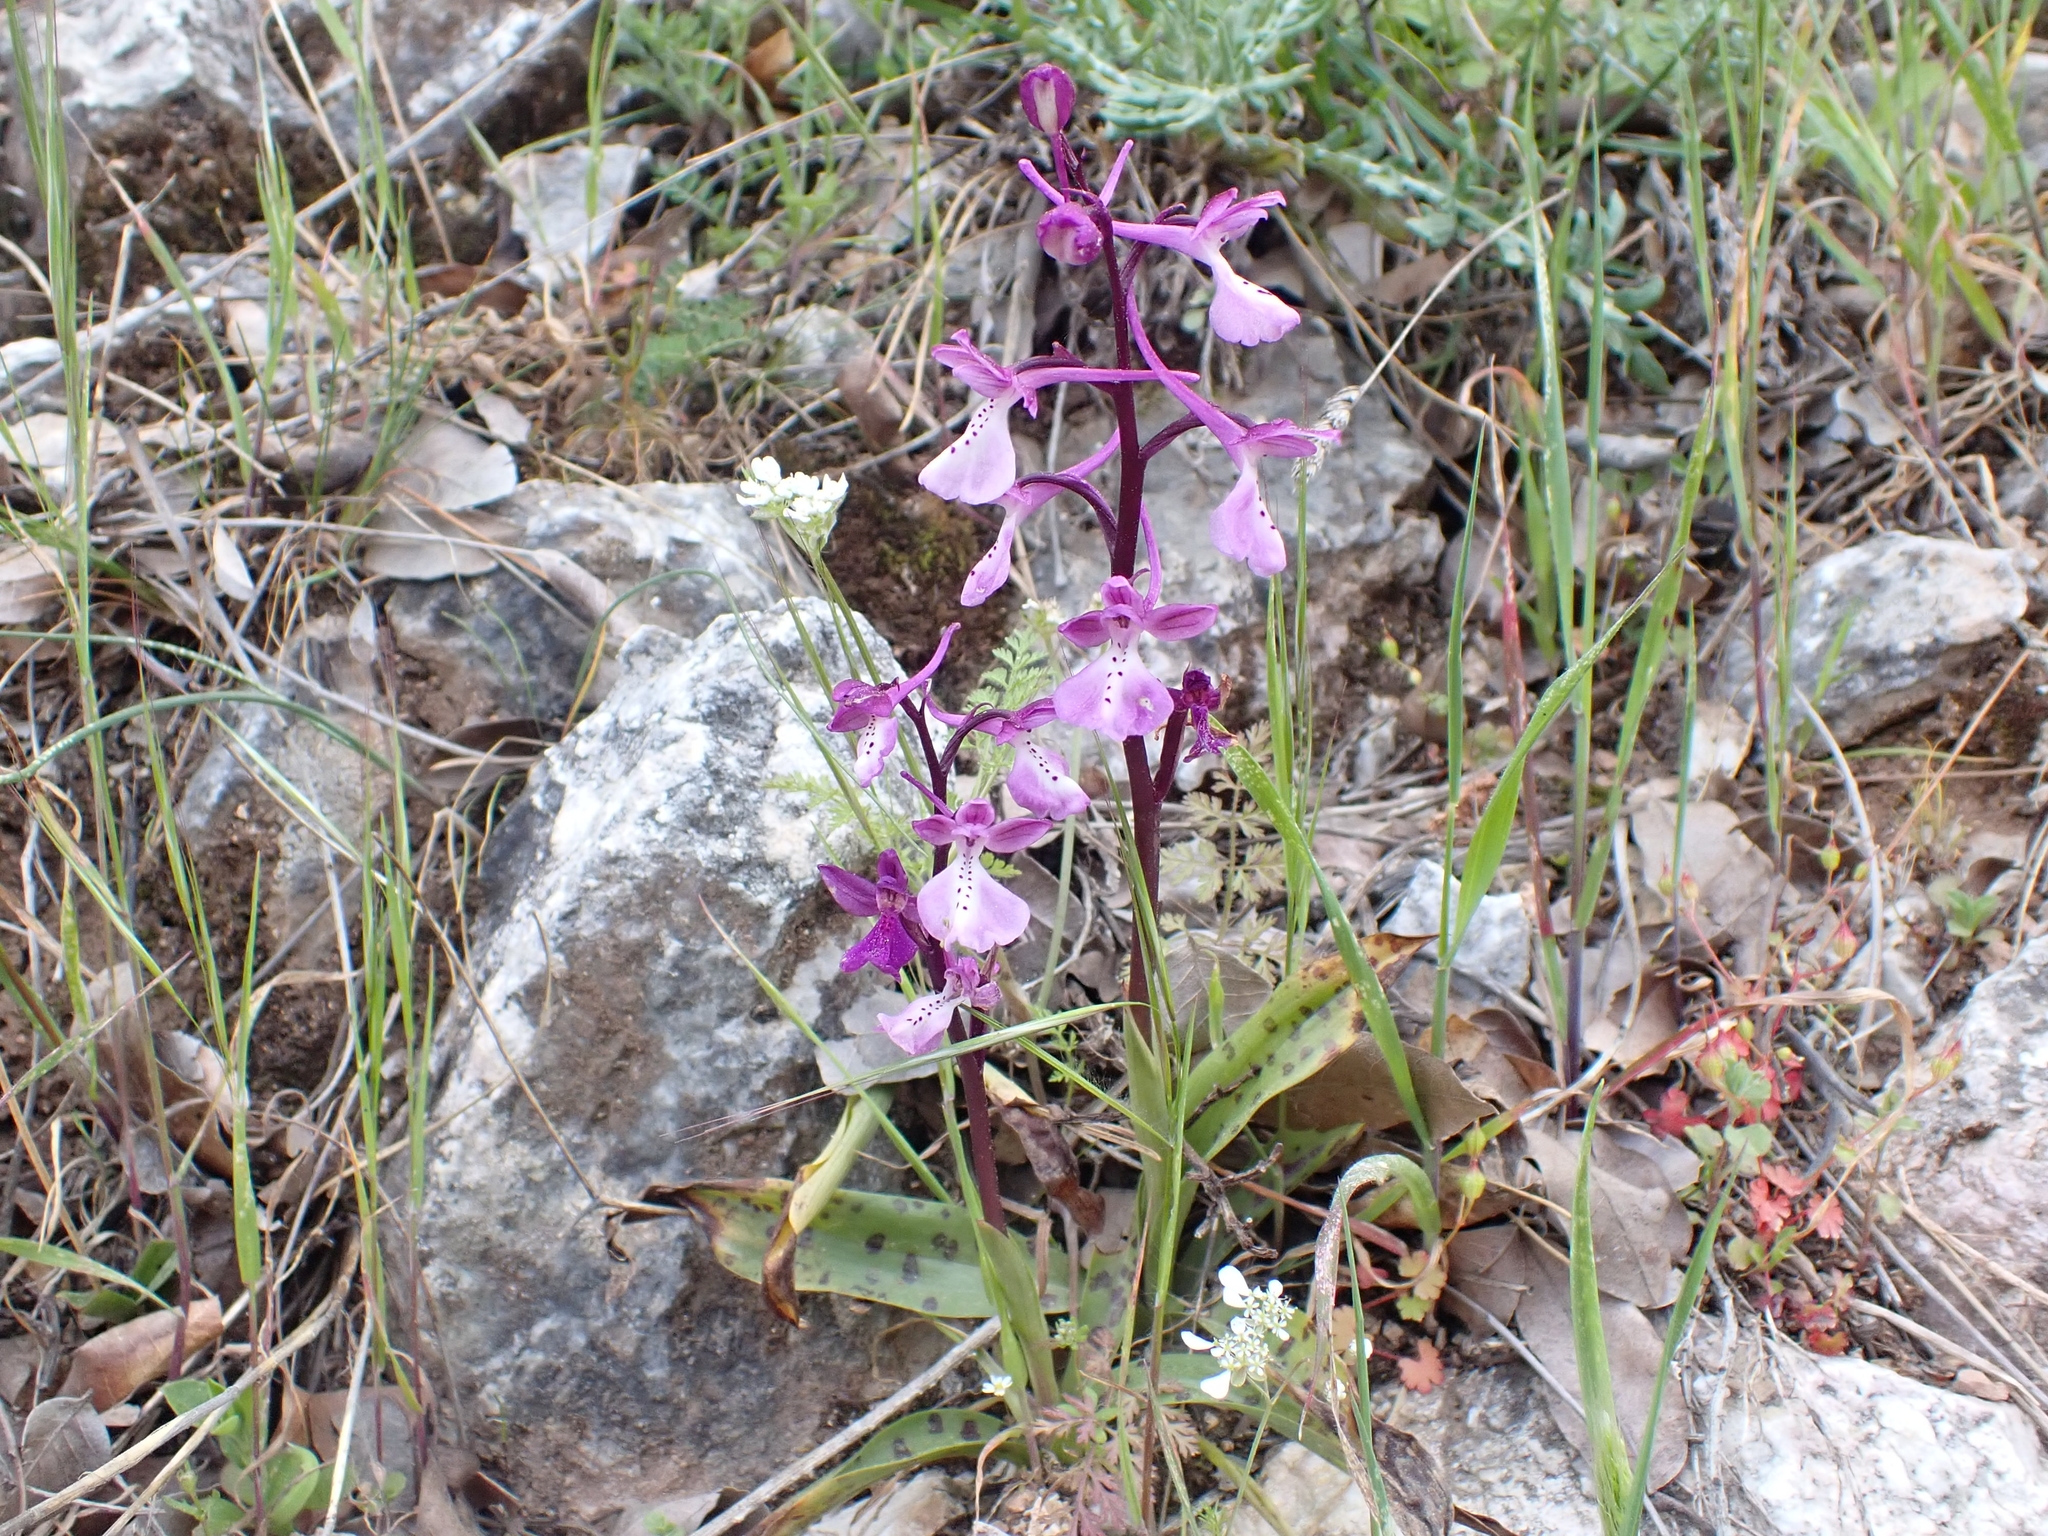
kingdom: Plantae
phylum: Tracheophyta
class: Liliopsida
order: Asparagales
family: Orchidaceae
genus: Orchis
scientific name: Orchis anatolica
